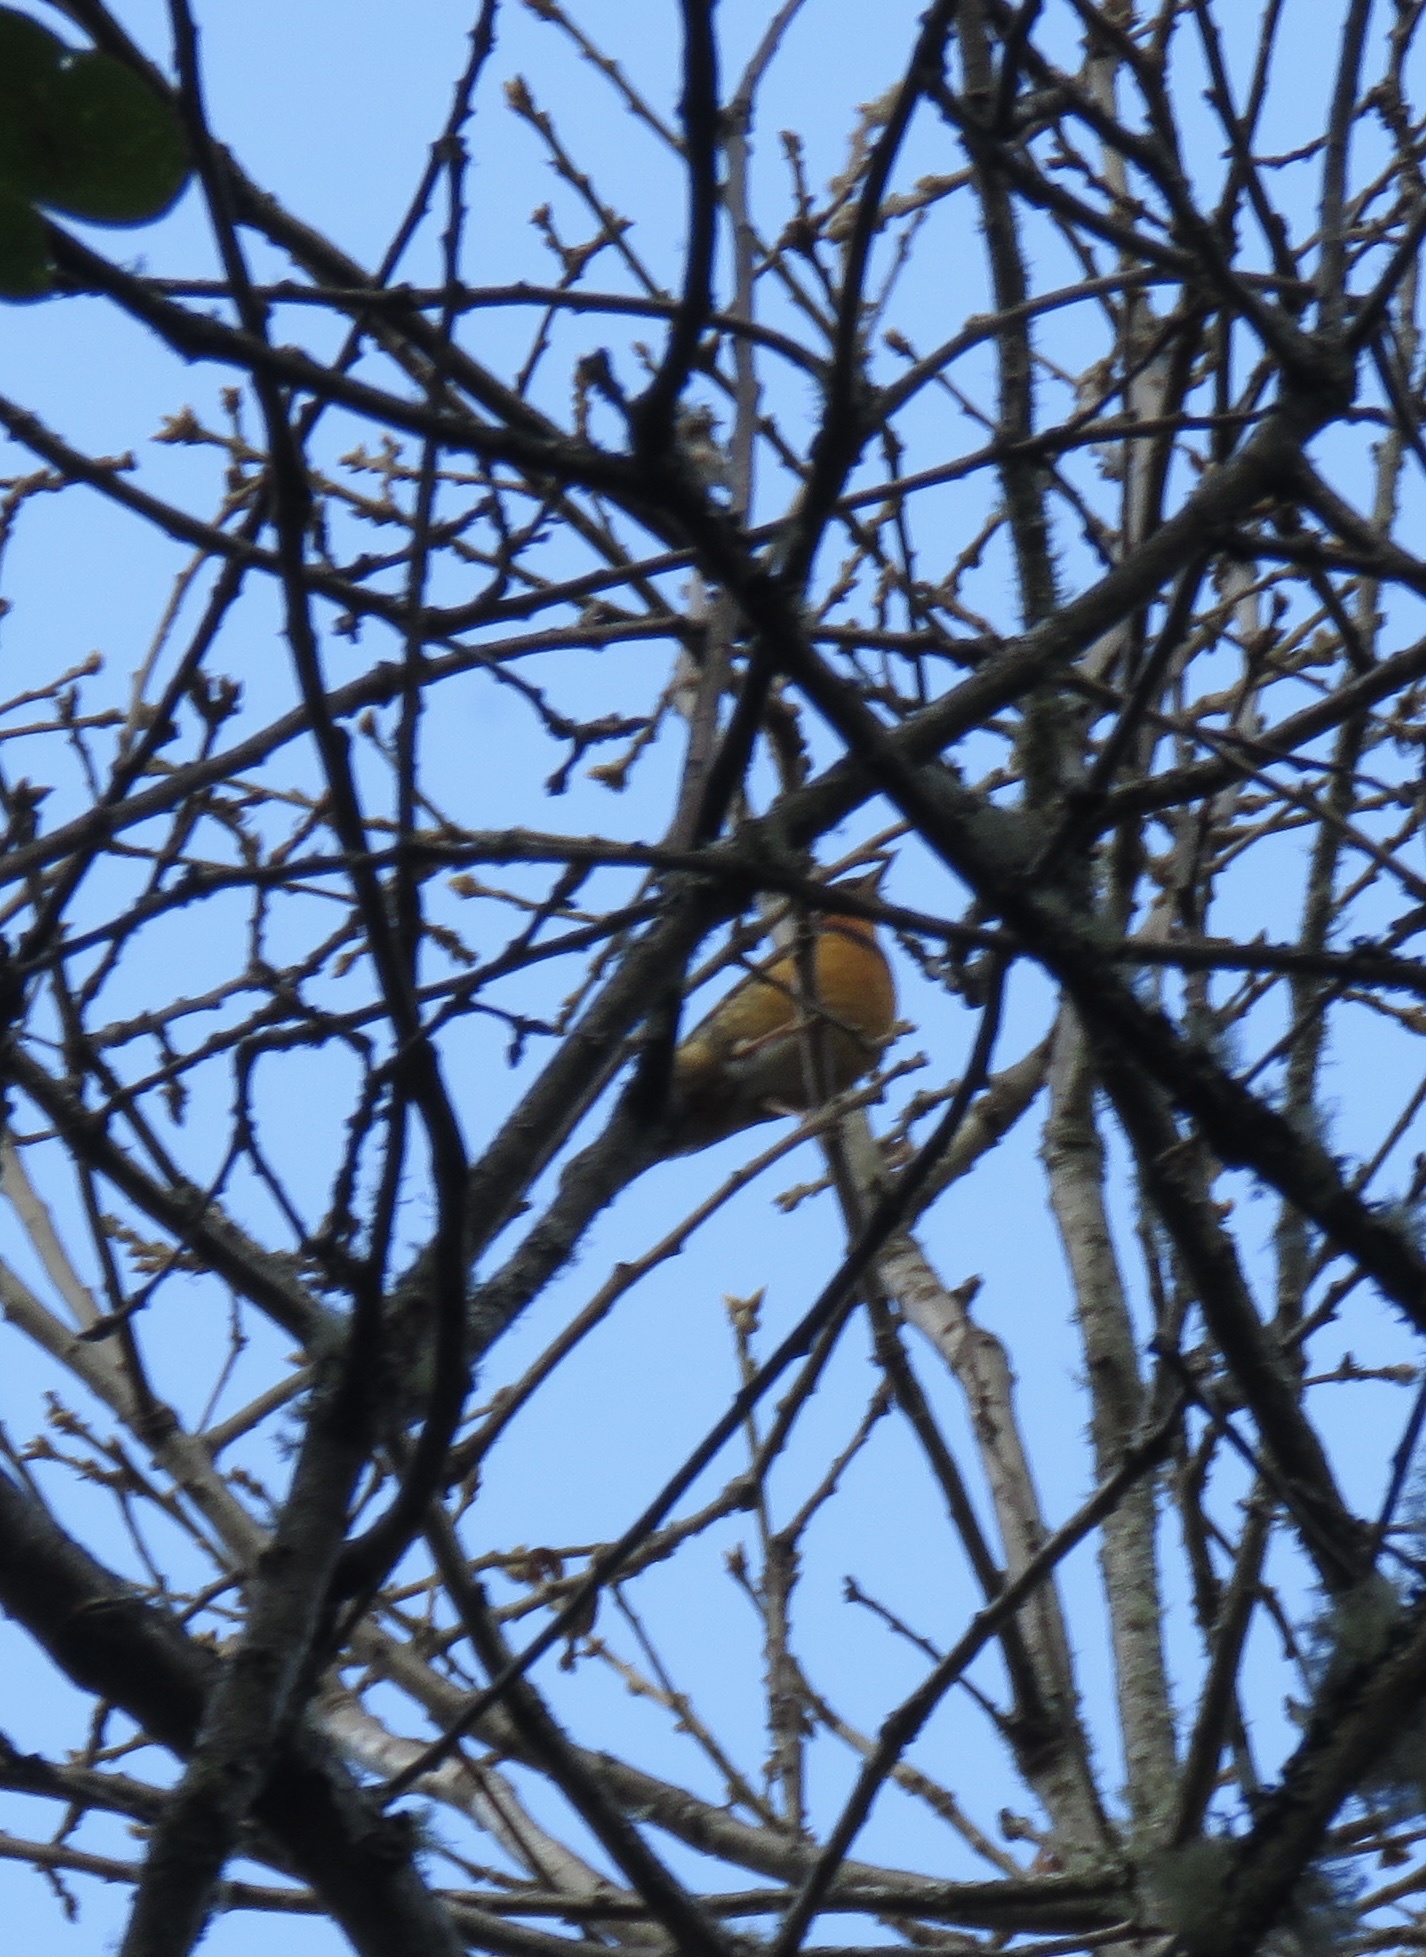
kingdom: Animalia
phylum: Chordata
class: Aves
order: Passeriformes
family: Turdidae
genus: Ixoreus
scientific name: Ixoreus naevius
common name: Varied thrush
